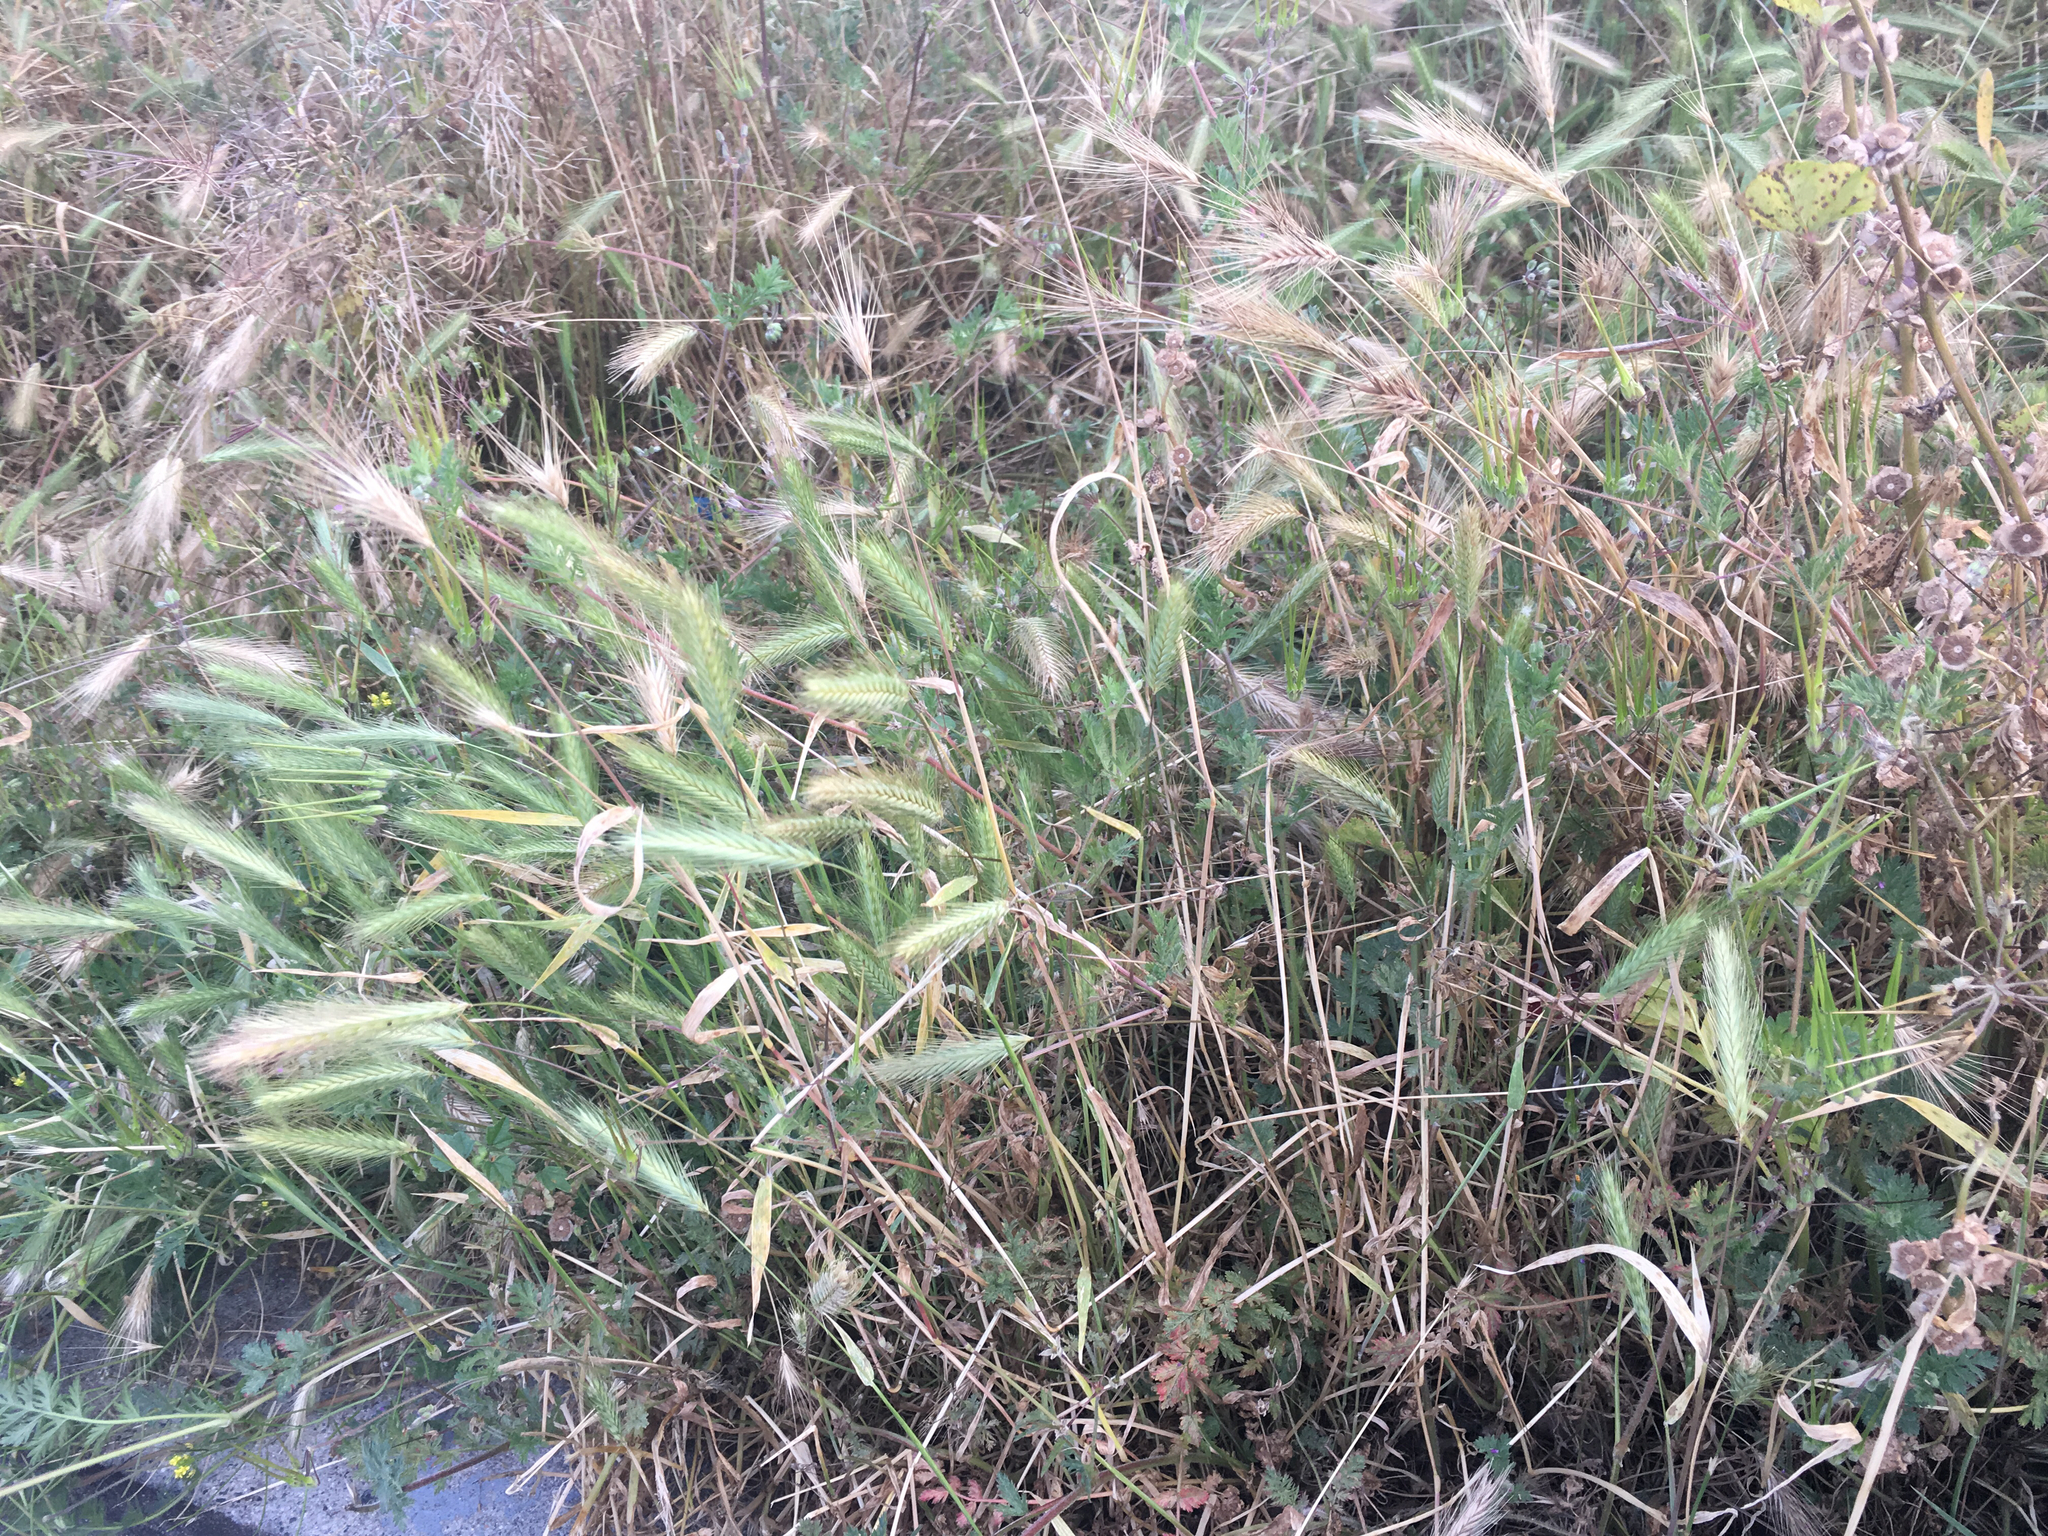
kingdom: Plantae
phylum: Tracheophyta
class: Liliopsida
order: Poales
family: Poaceae
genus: Hordeum
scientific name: Hordeum murinum
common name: Wall barley
